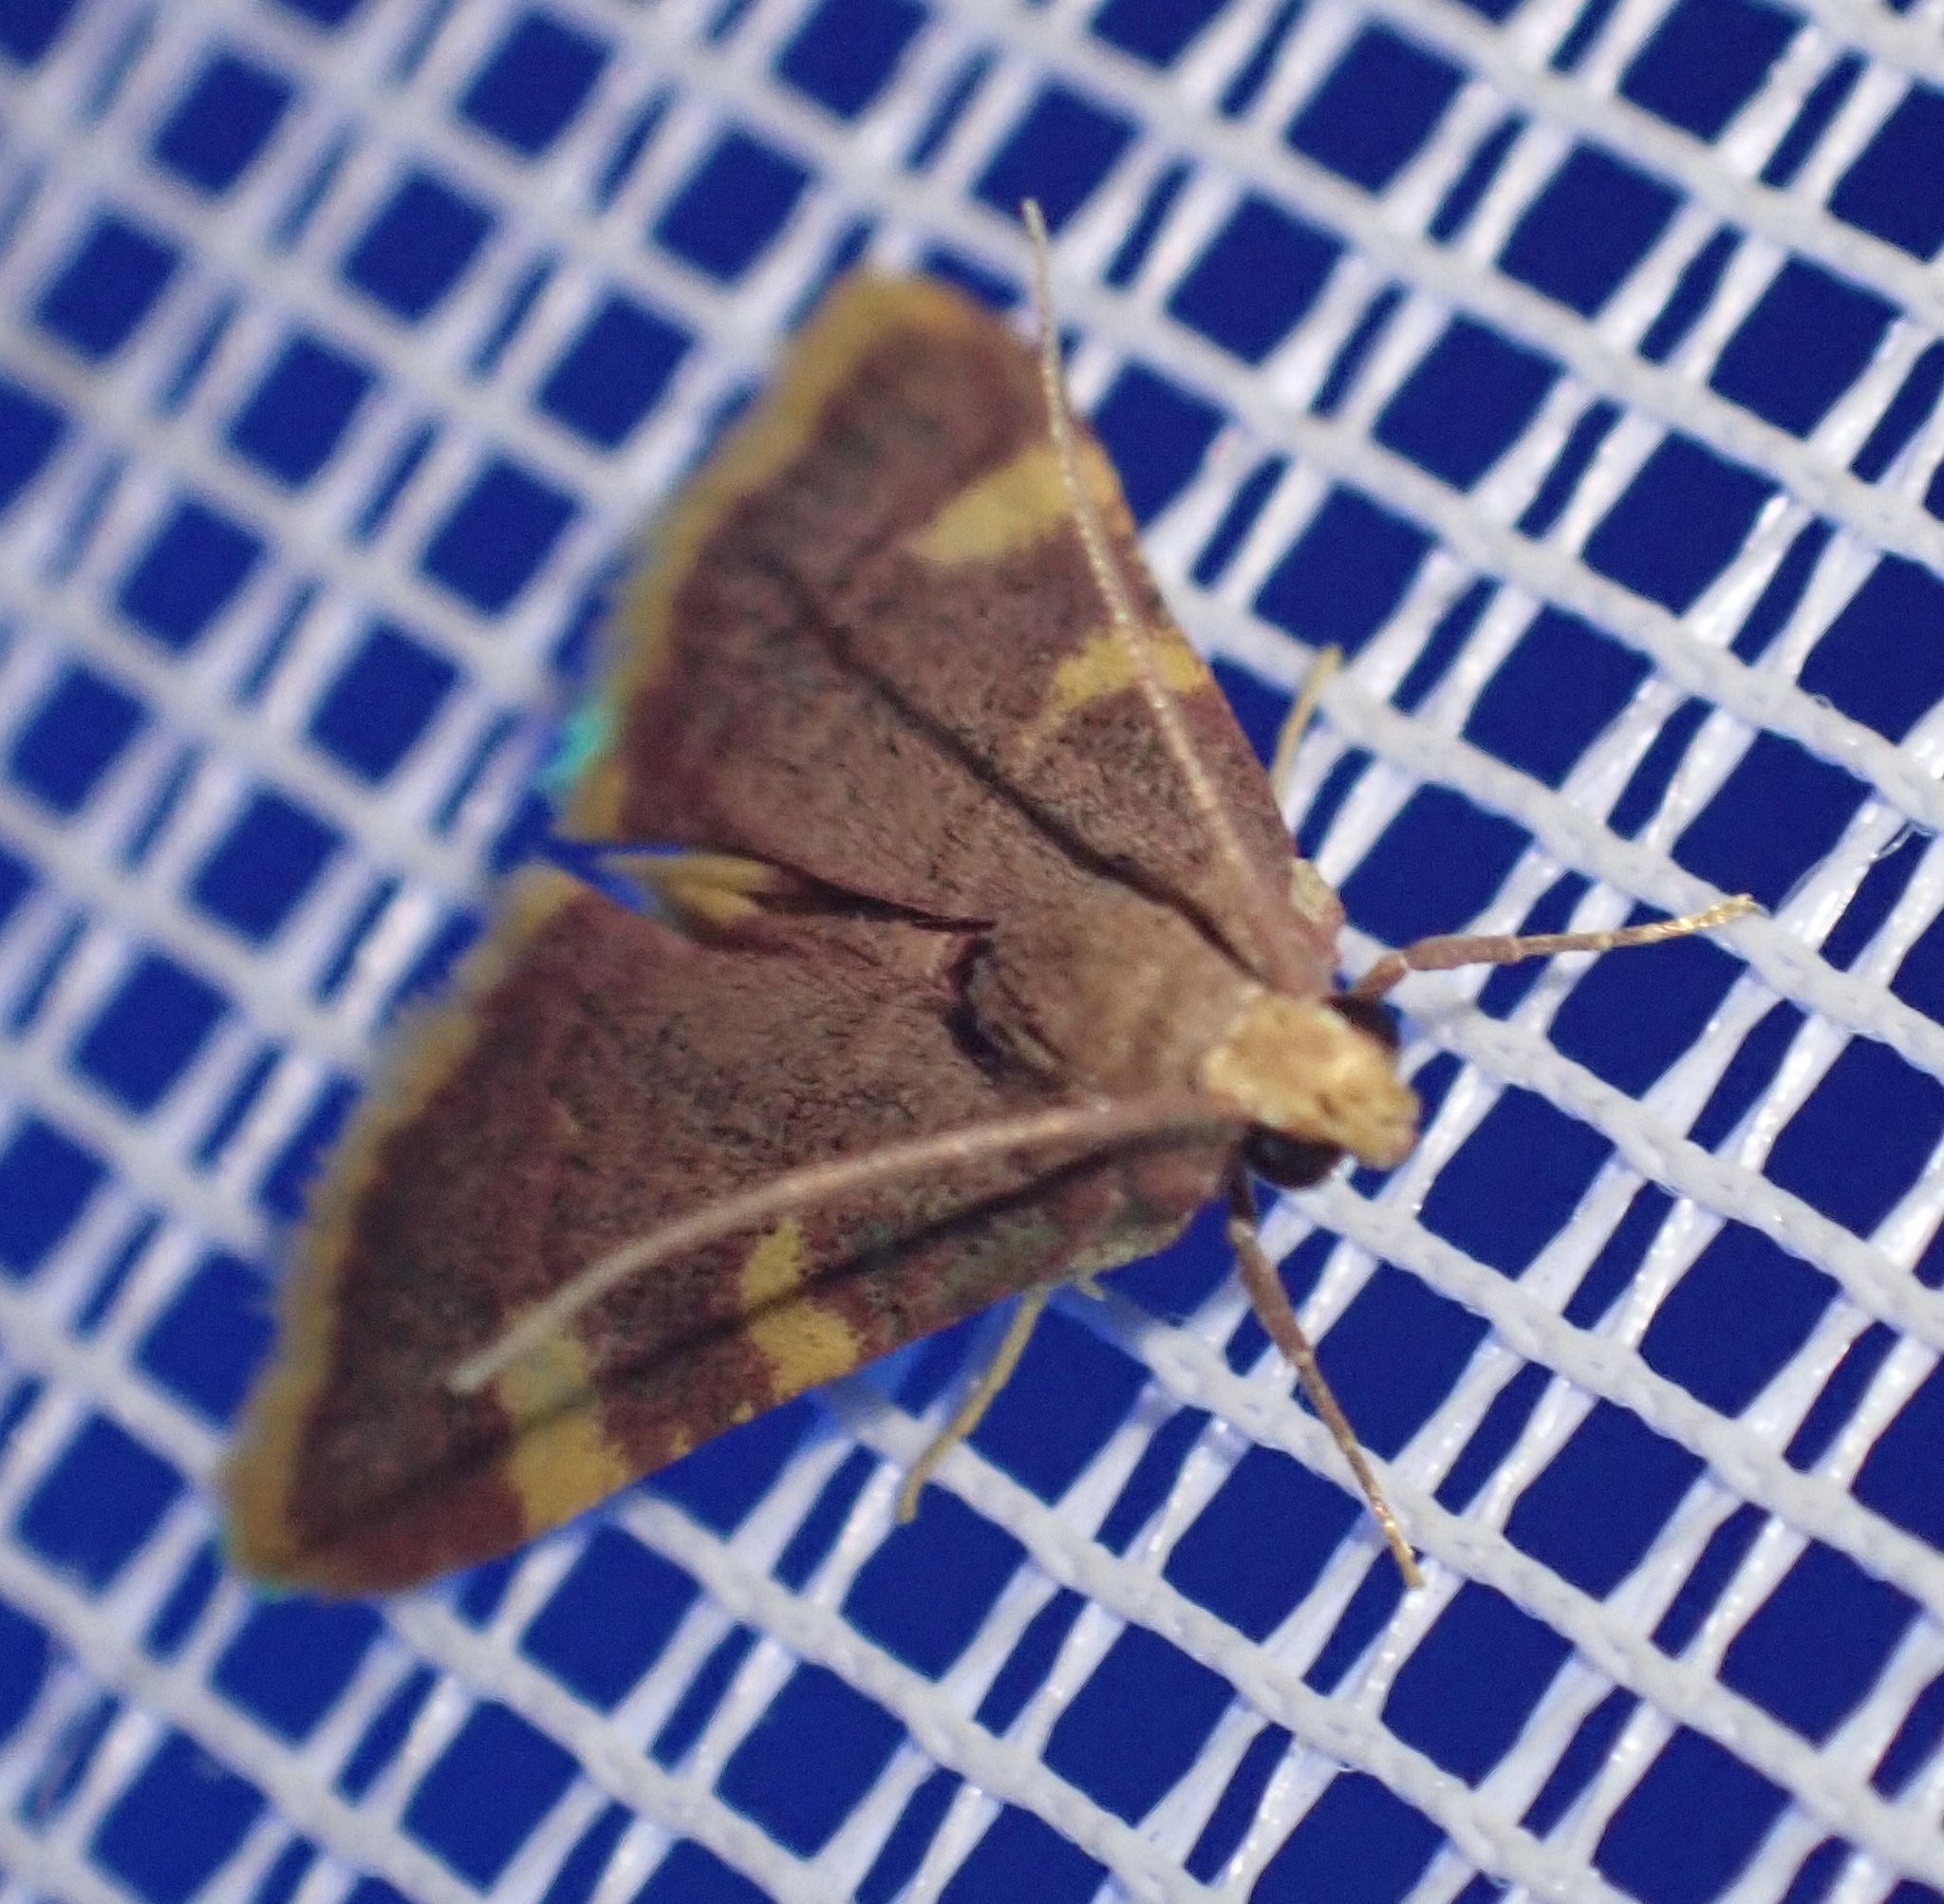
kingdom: Animalia
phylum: Arthropoda
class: Insecta
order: Lepidoptera
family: Pyralidae
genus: Hypsopygia
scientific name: Hypsopygia costalis
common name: Gold triangle
